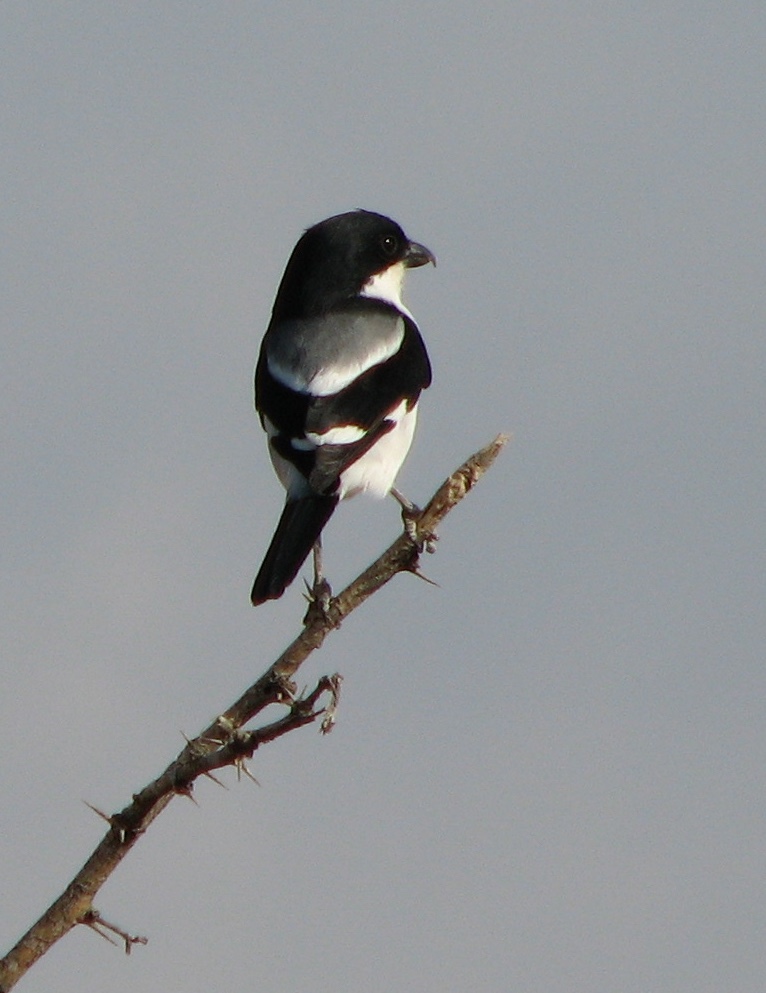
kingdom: Animalia
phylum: Chordata
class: Aves
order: Passeriformes
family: Laniidae
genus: Lanius
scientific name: Lanius somalicus
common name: Somali fiscal
